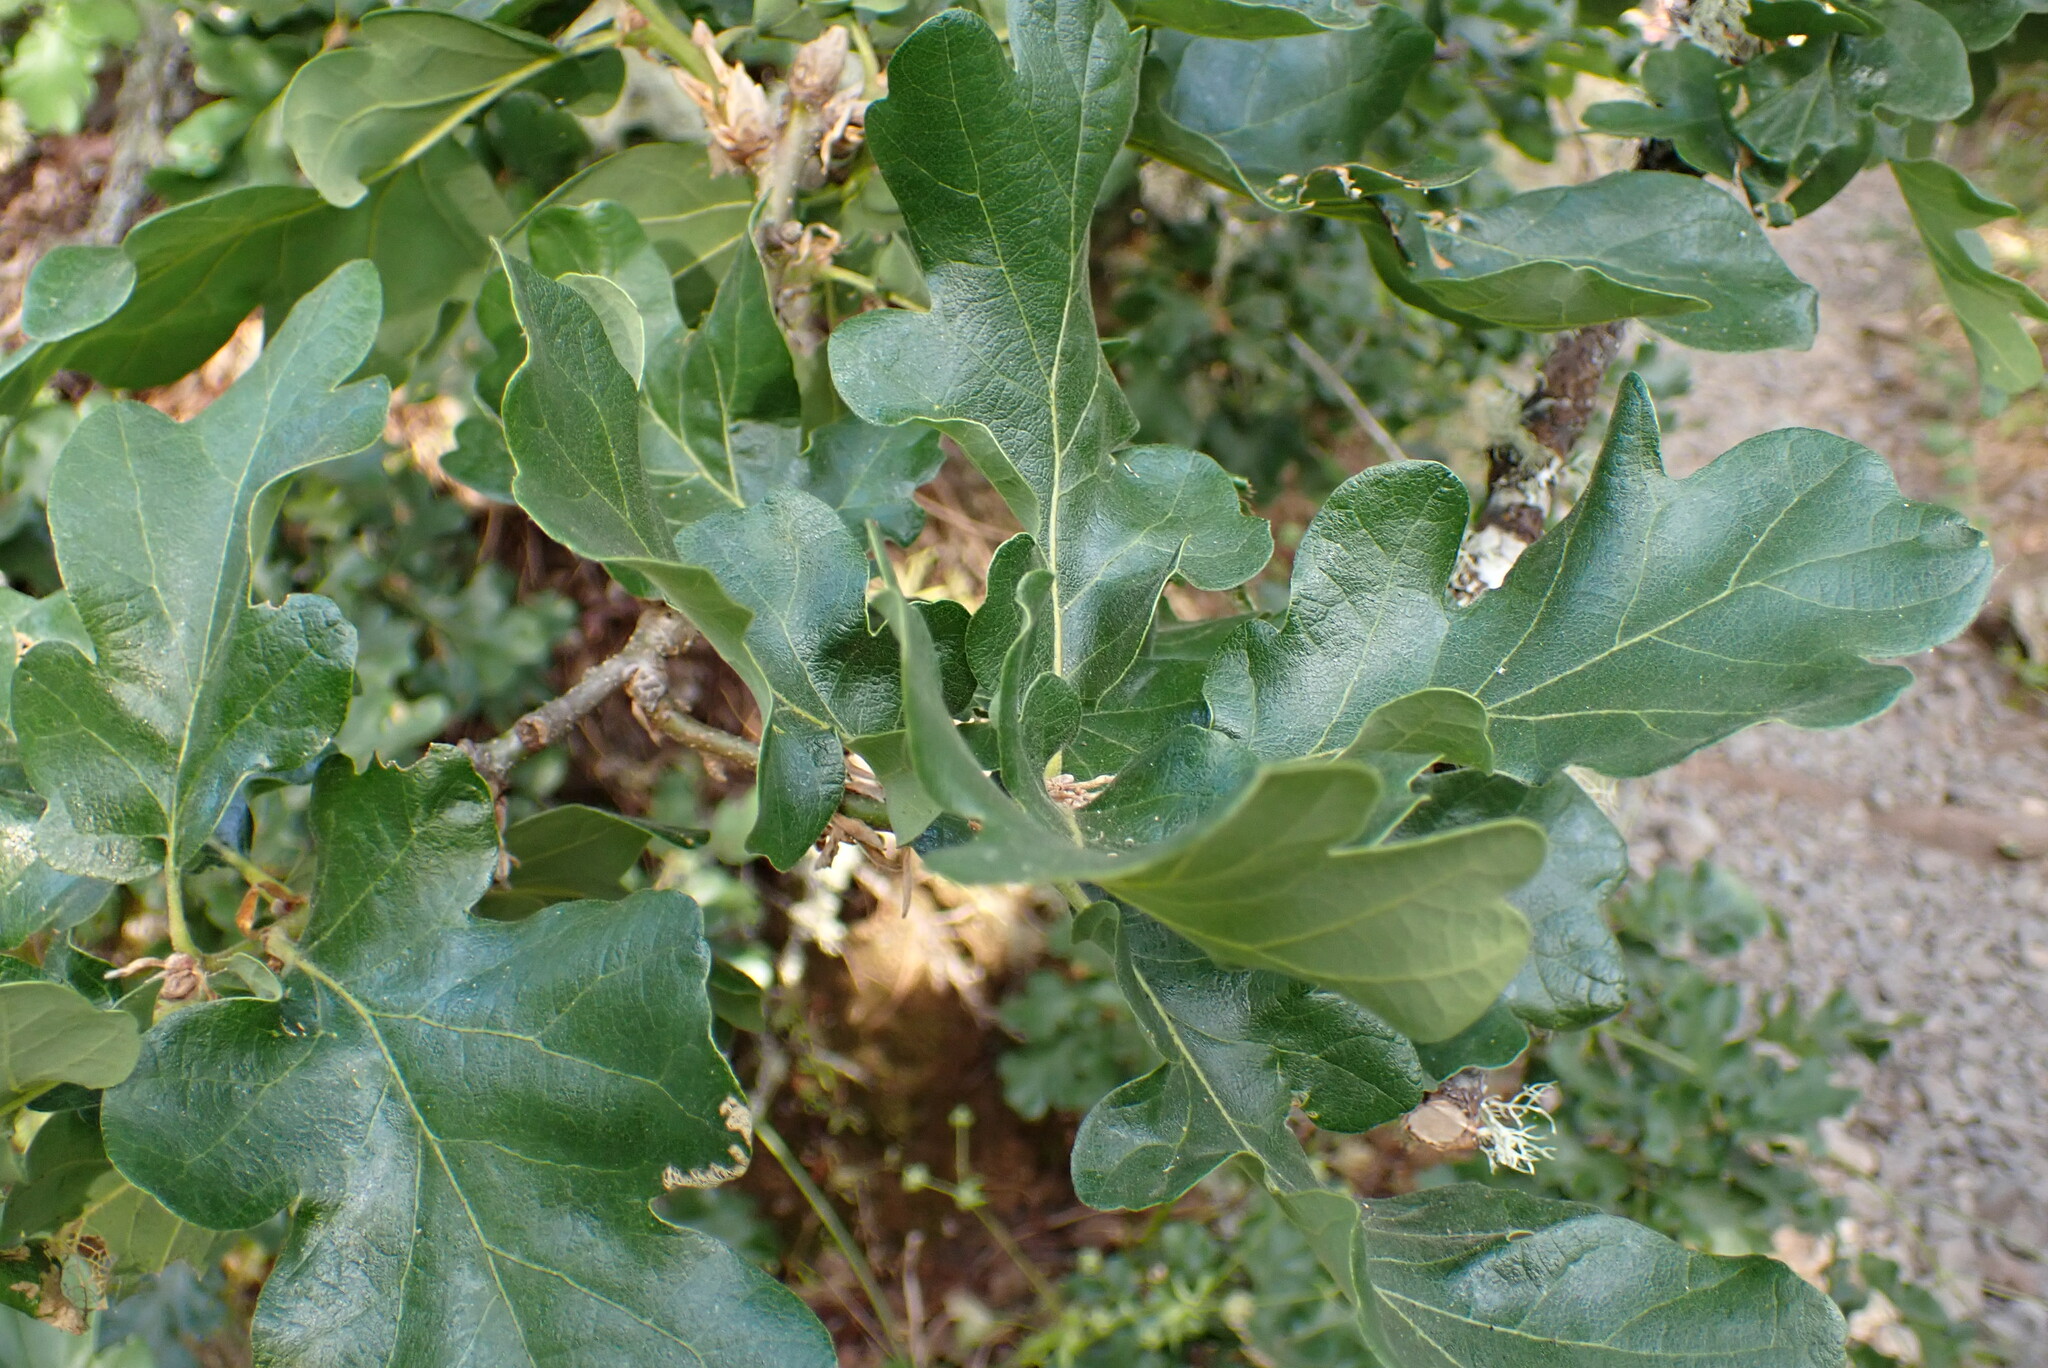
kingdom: Plantae
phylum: Tracheophyta
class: Magnoliopsida
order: Fagales
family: Fagaceae
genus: Quercus
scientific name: Quercus garryana
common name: Garry oak
